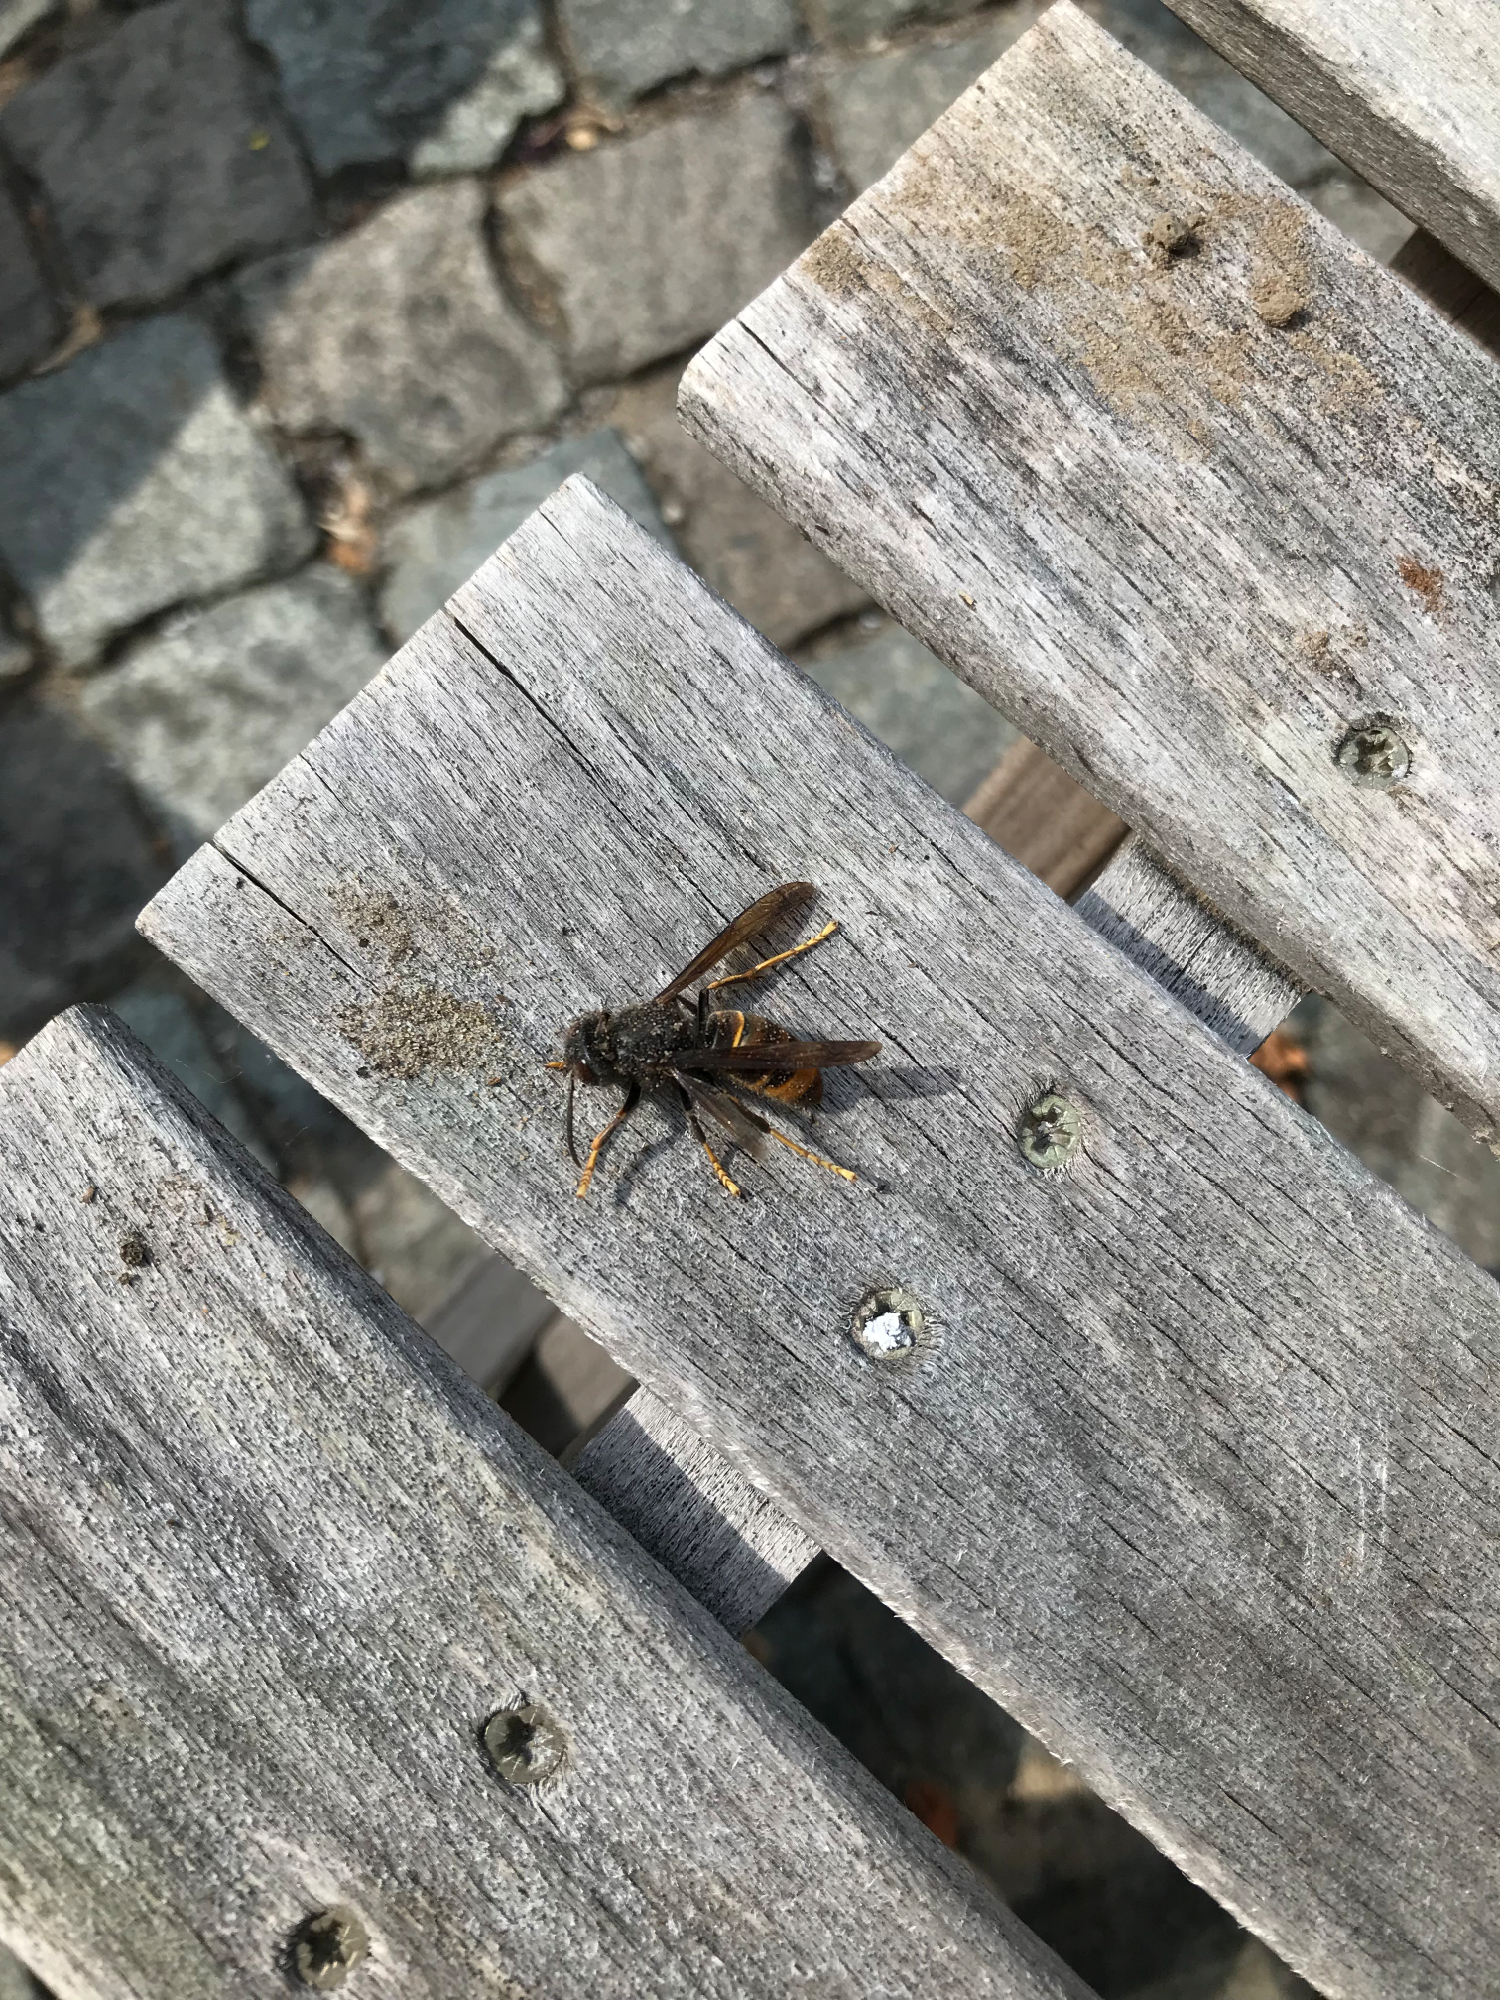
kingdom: Animalia
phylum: Arthropoda
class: Insecta
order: Hymenoptera
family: Vespidae
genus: Vespa
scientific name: Vespa crabro
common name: Hornet
